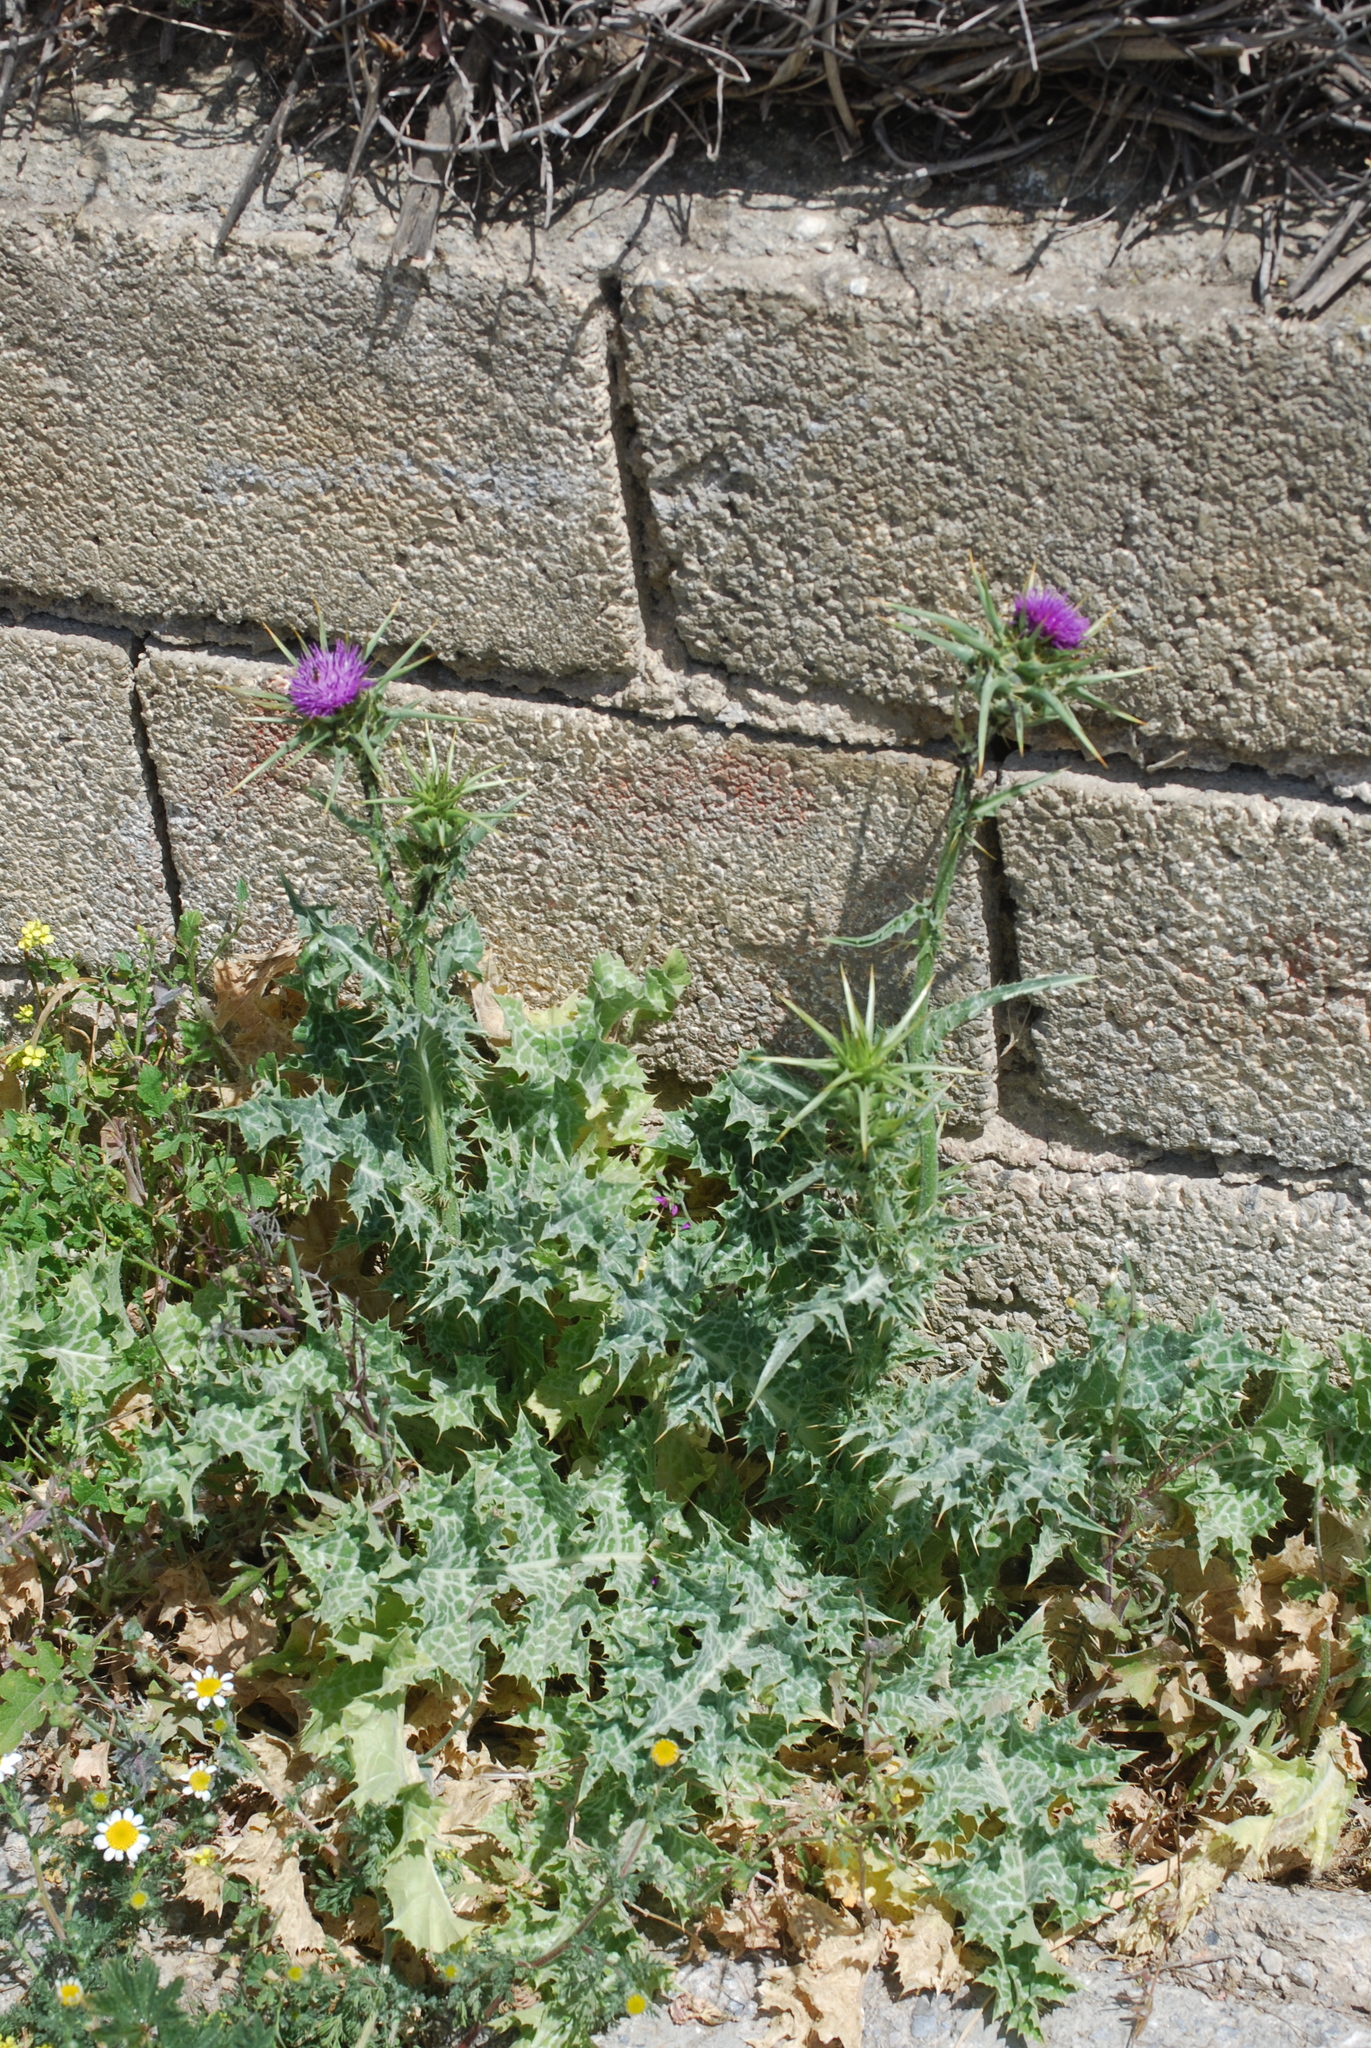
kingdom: Plantae
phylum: Tracheophyta
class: Magnoliopsida
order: Asterales
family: Asteraceae
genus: Silybum
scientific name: Silybum marianum
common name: Milk thistle
